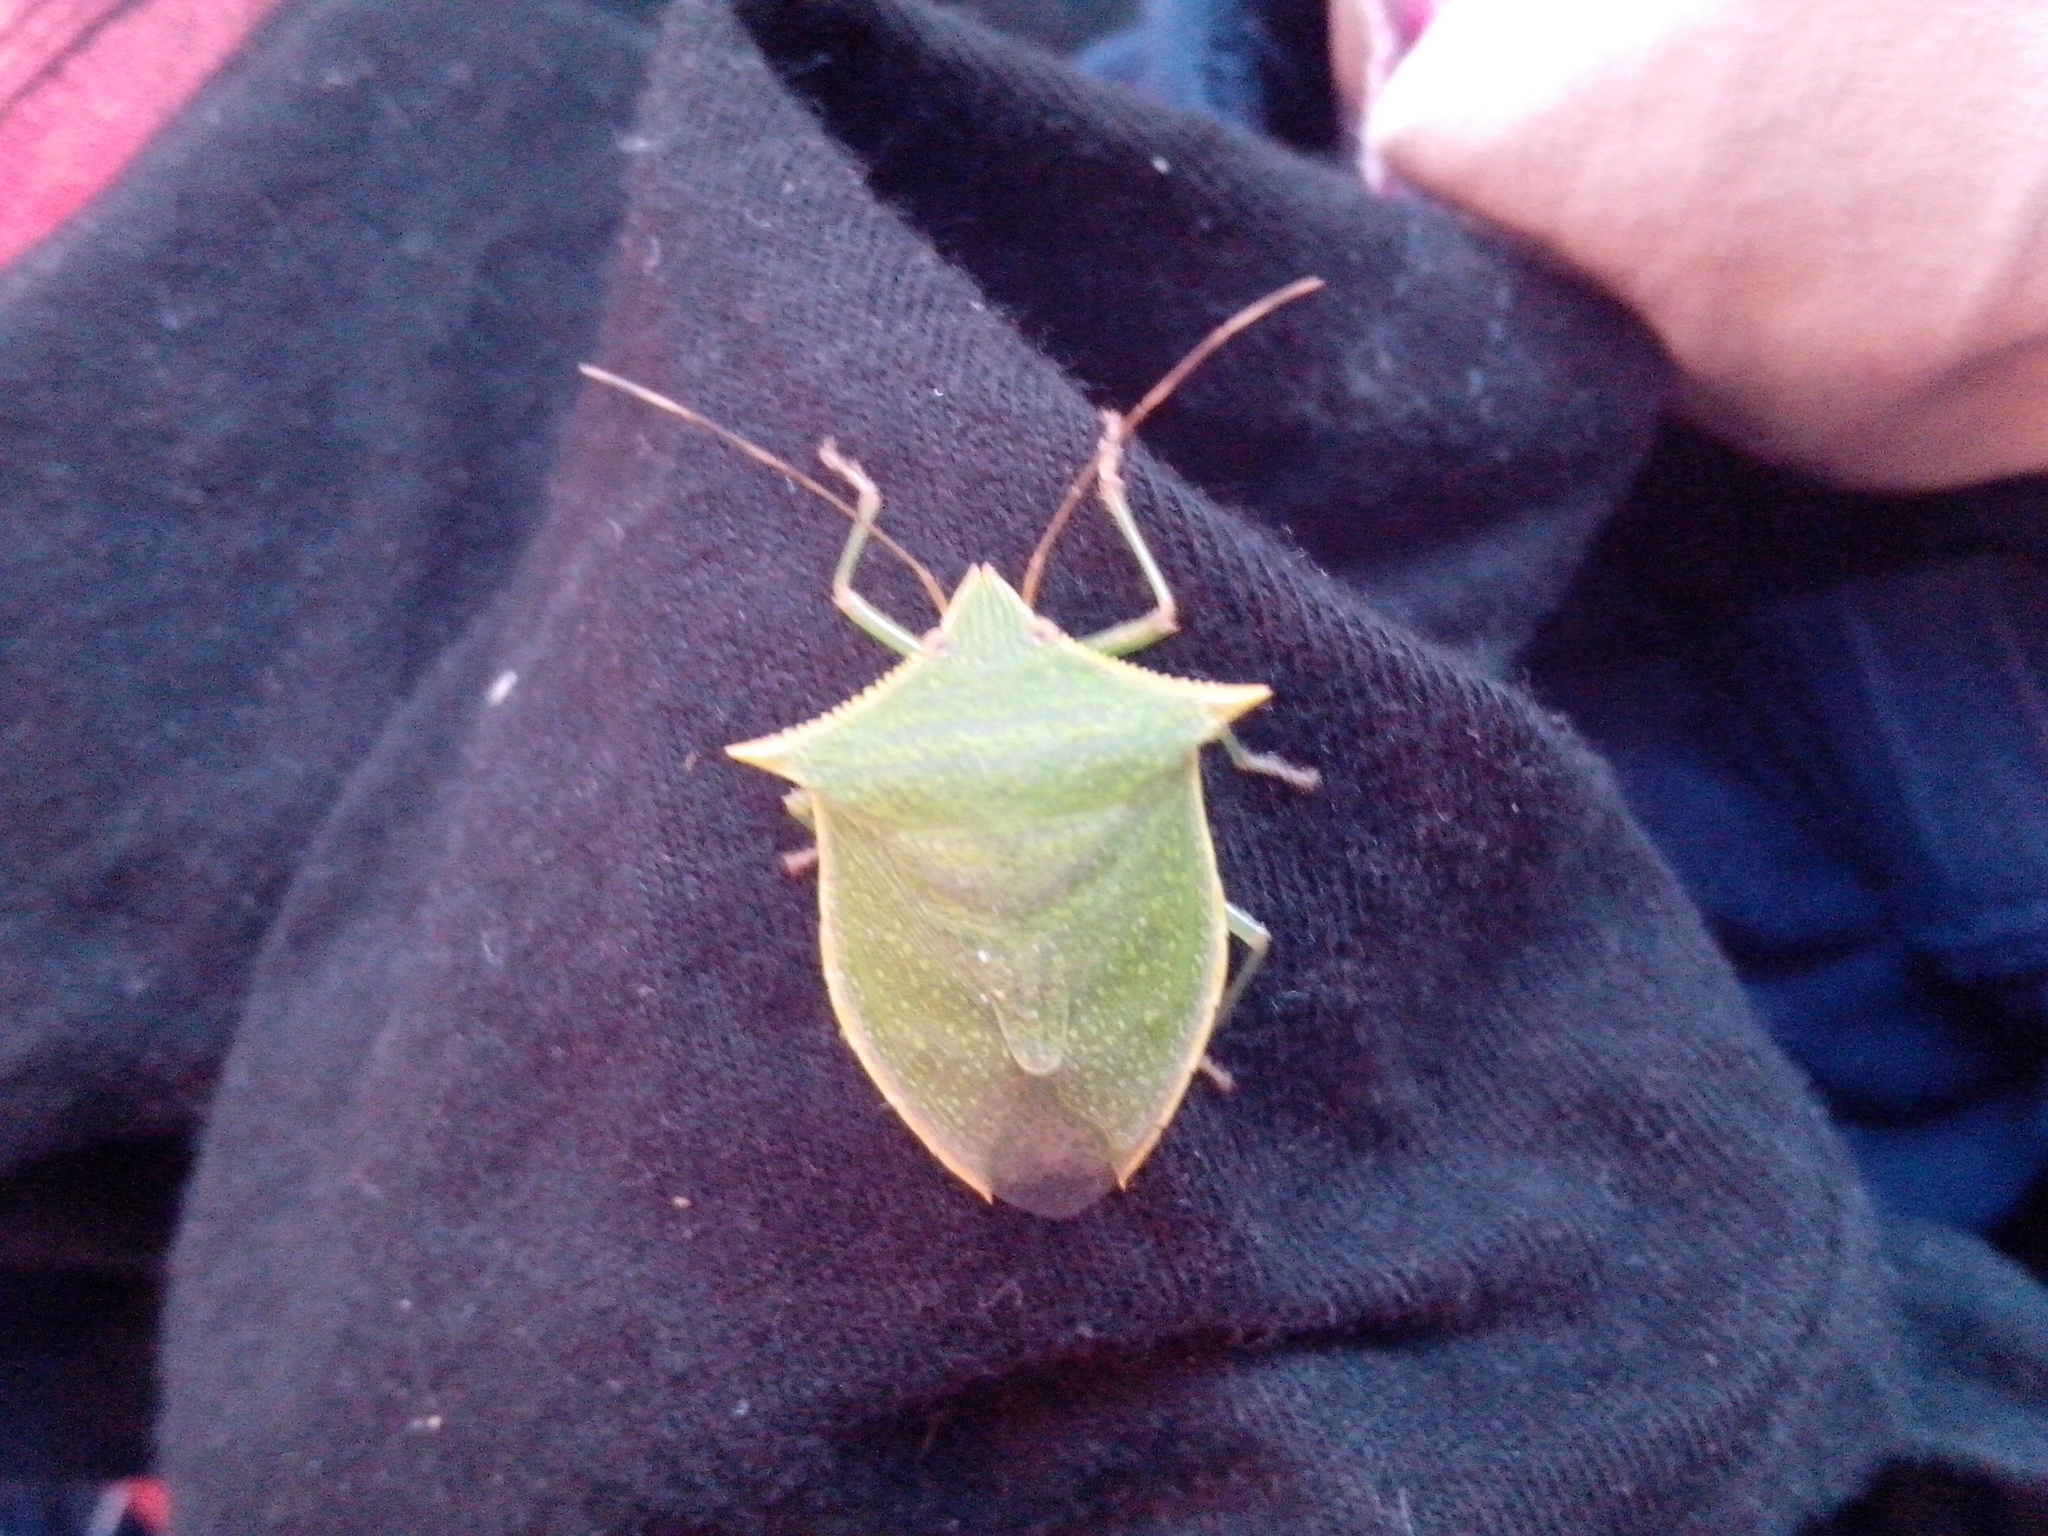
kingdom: Animalia
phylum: Arthropoda
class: Insecta
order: Hemiptera
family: Pentatomidae
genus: Loxa
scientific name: Loxa viridis
